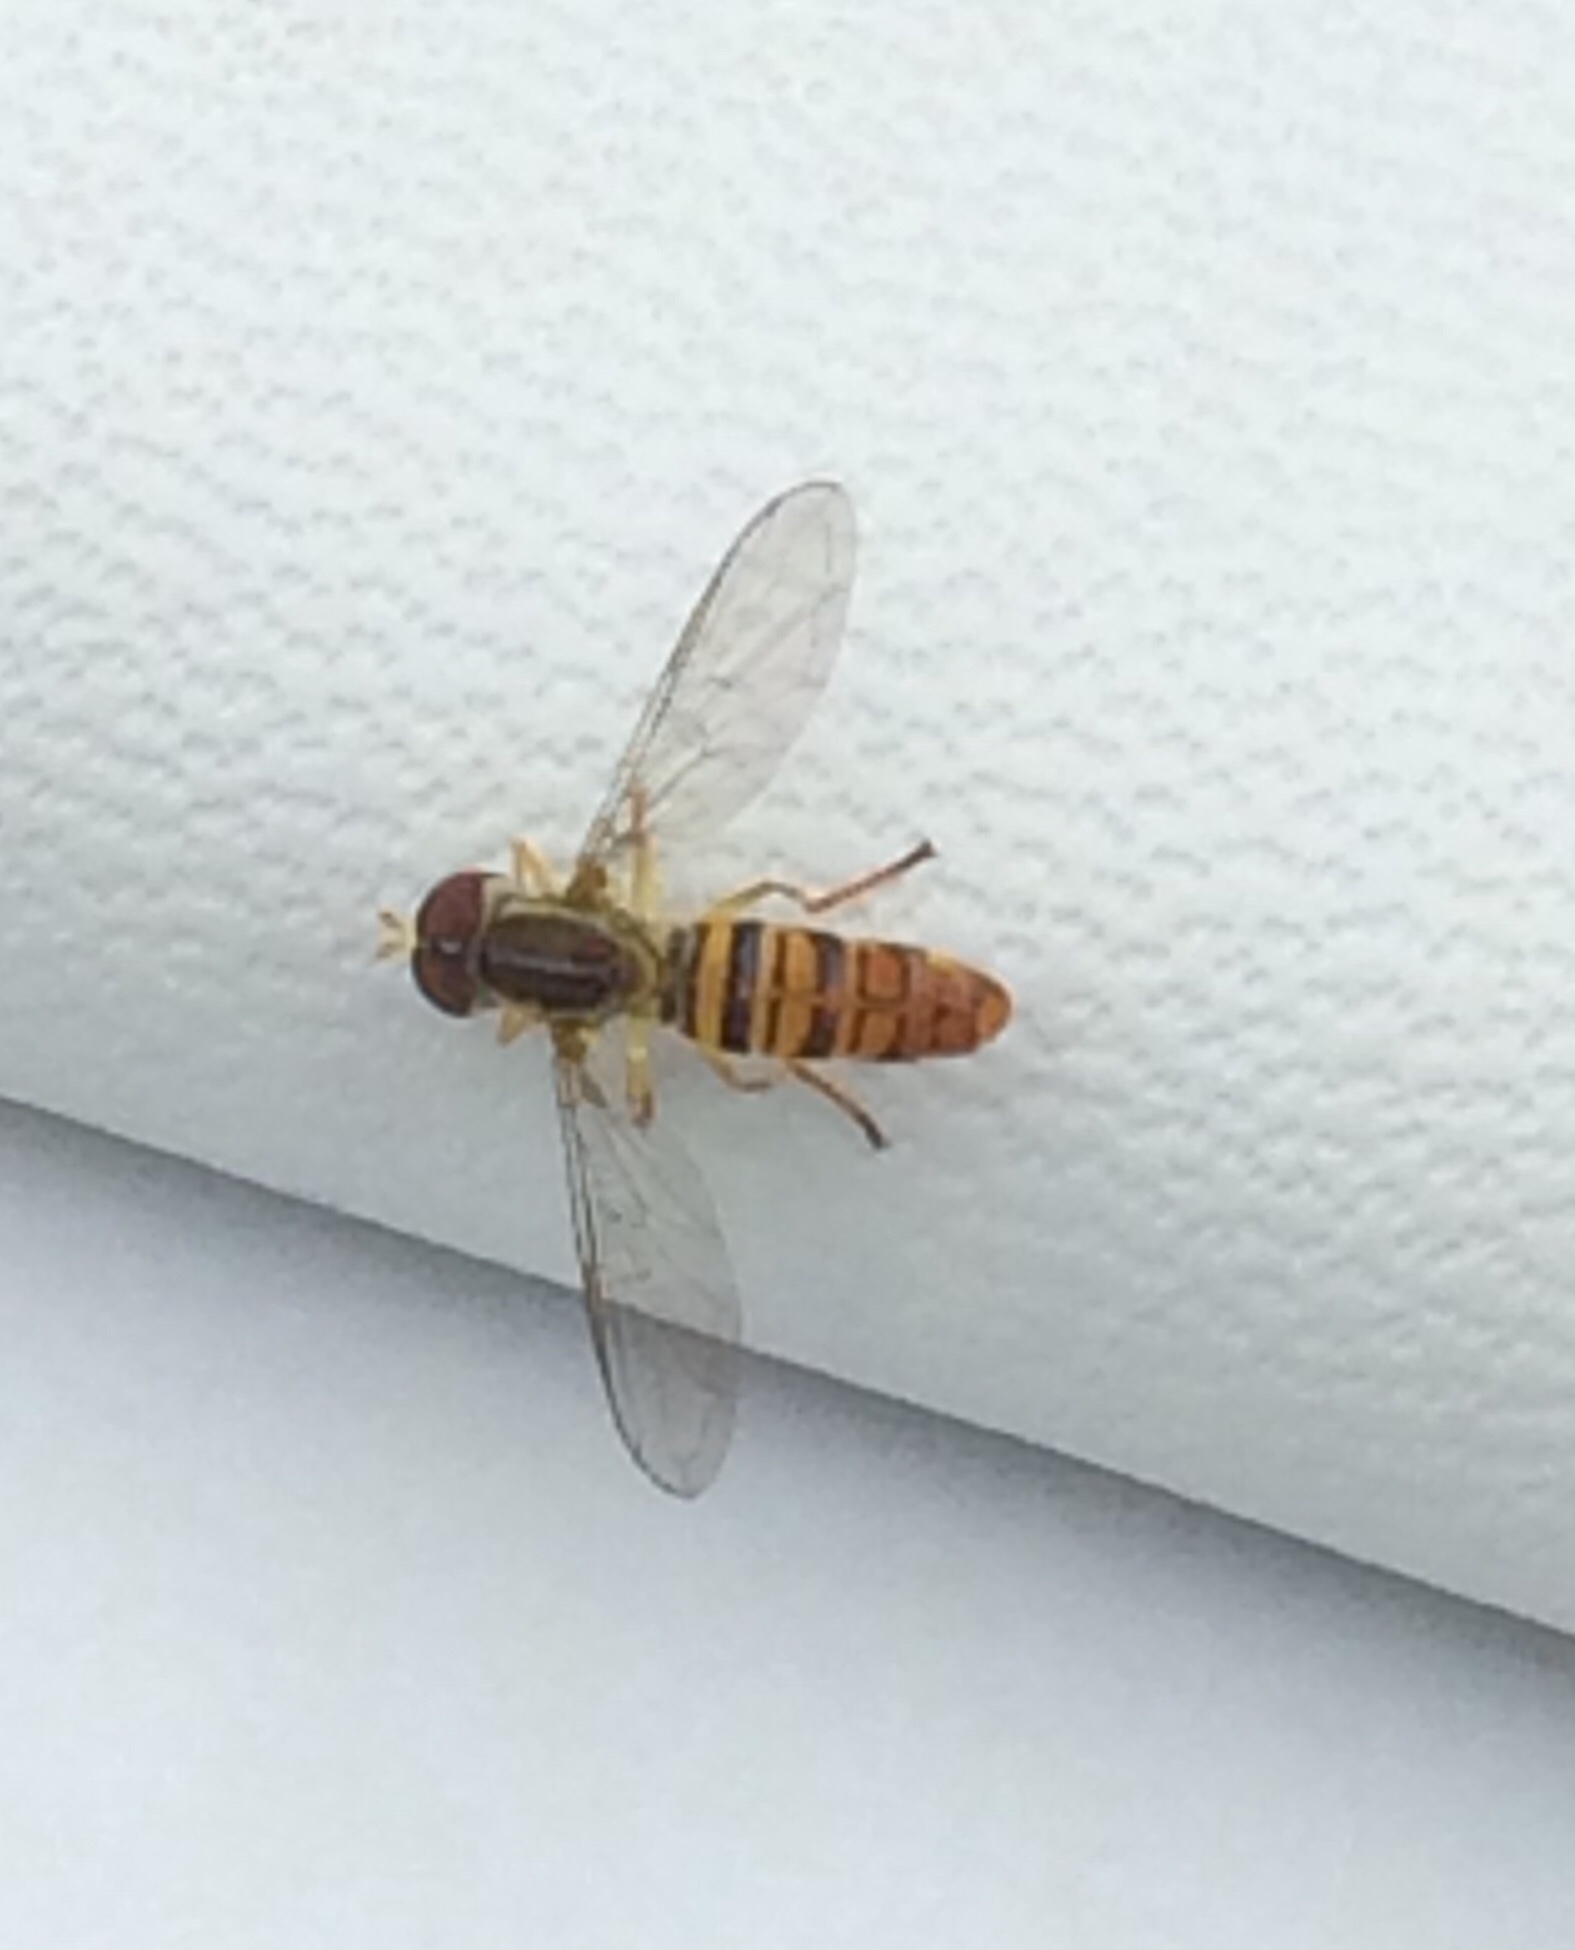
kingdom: Animalia
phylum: Arthropoda
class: Insecta
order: Diptera
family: Syrphidae
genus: Toxomerus
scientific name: Toxomerus politus
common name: Maize calligrapher
